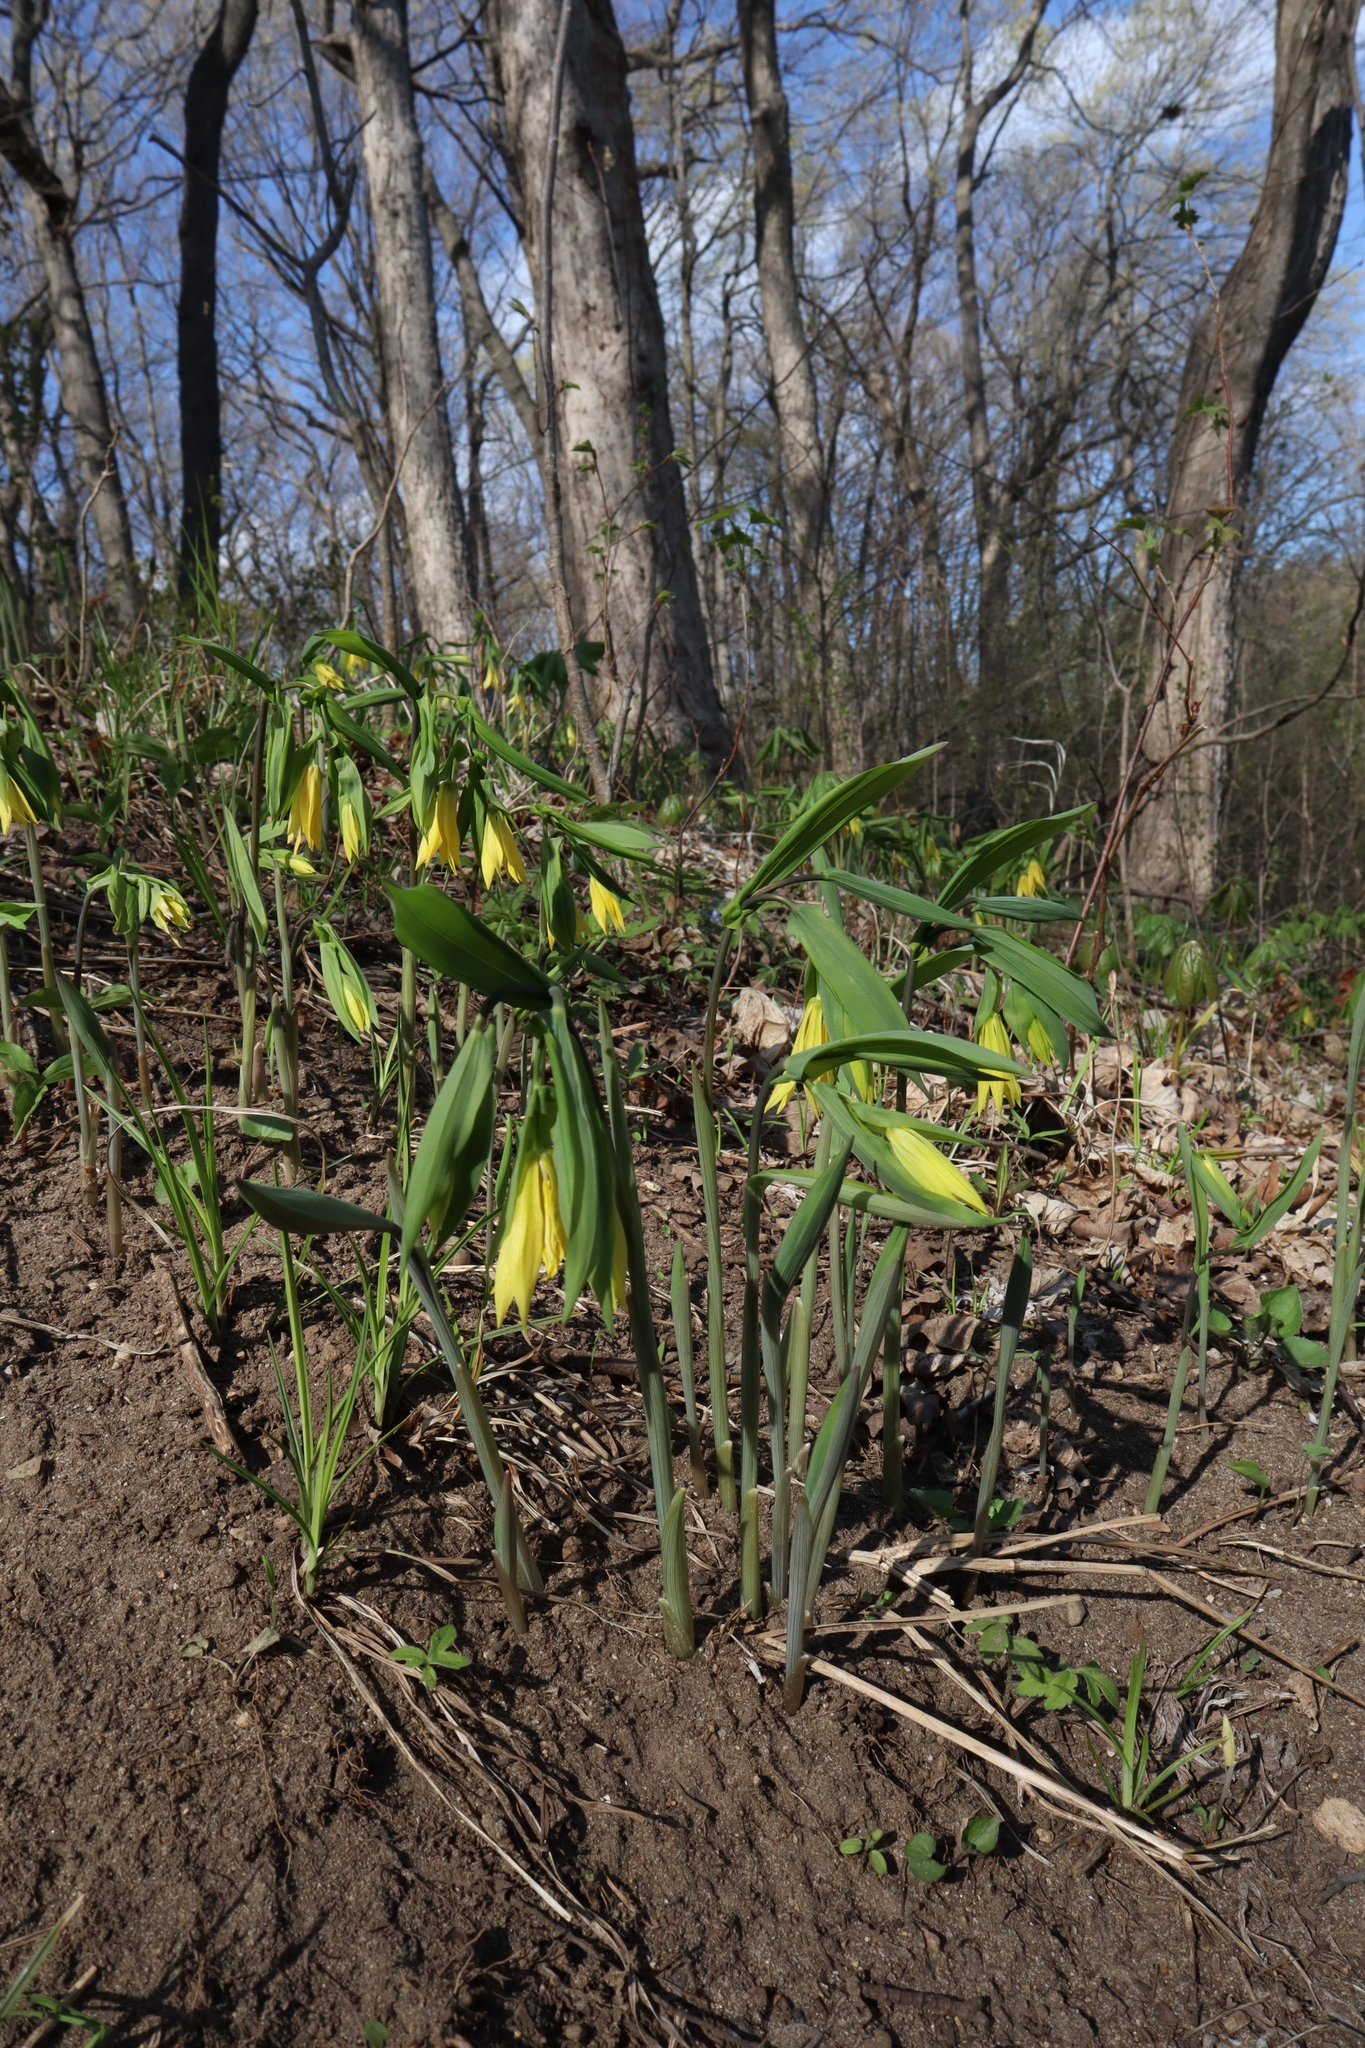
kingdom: Plantae
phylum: Tracheophyta
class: Liliopsida
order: Liliales
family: Colchicaceae
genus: Uvularia
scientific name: Uvularia grandiflora
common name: Bellwort
